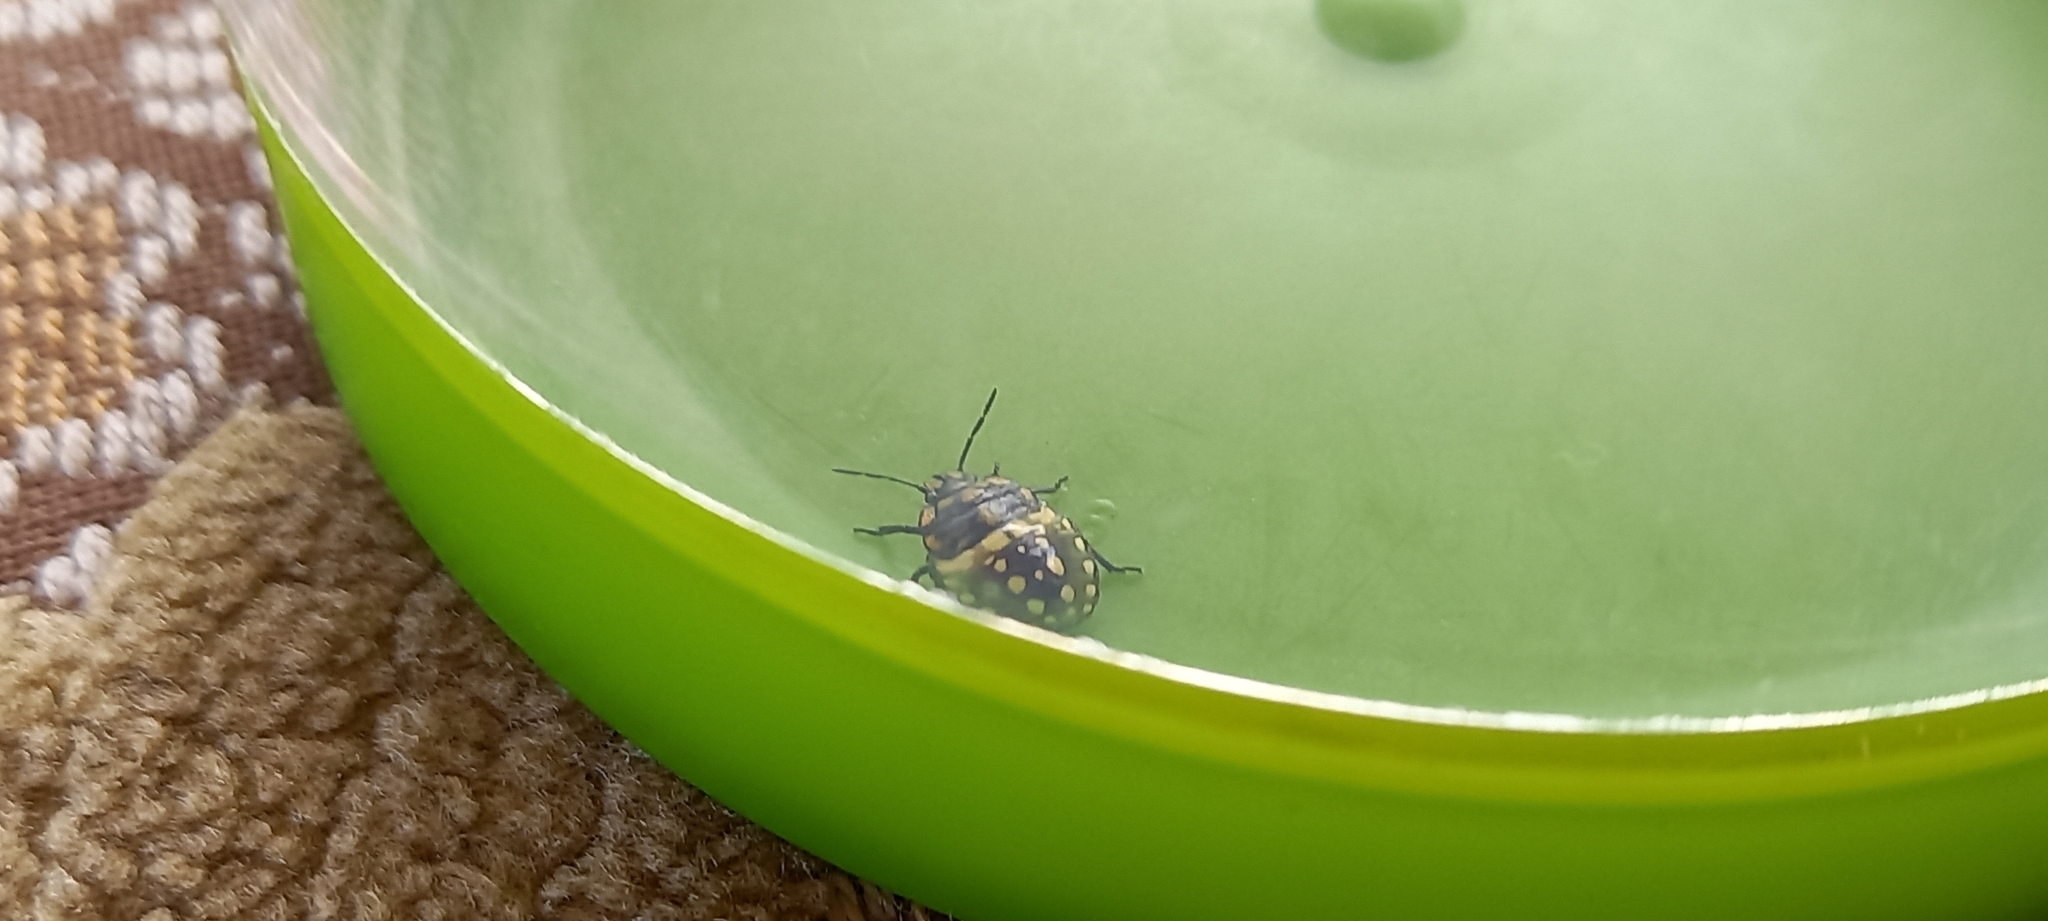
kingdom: Animalia
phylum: Arthropoda
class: Insecta
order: Hemiptera
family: Pentatomidae
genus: Nezara
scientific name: Nezara viridula
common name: Southern green stink bug
